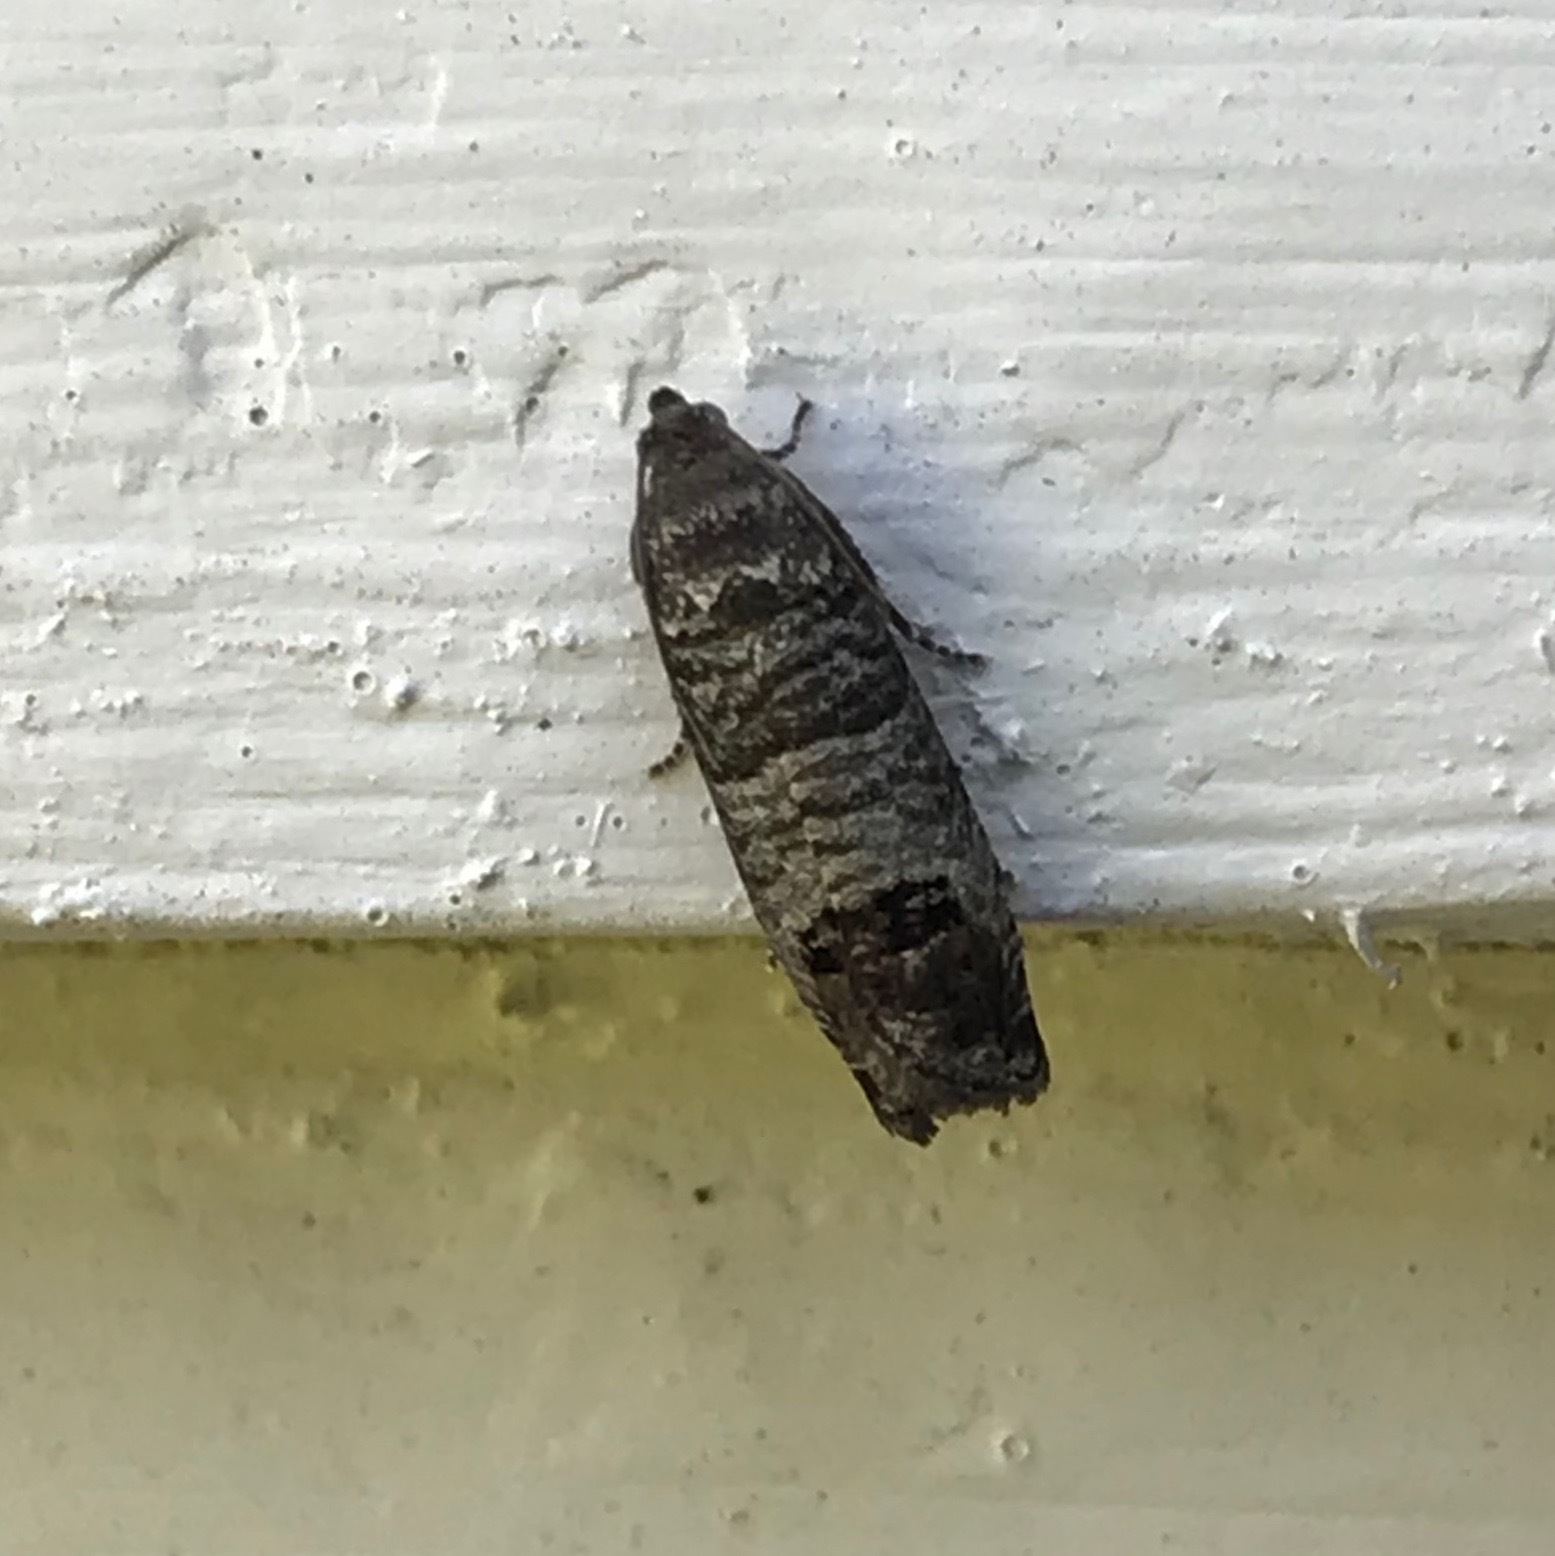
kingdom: Animalia
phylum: Arthropoda
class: Insecta
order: Lepidoptera
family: Tortricidae
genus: Cydia
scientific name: Cydia pomonella
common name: Codling moth
